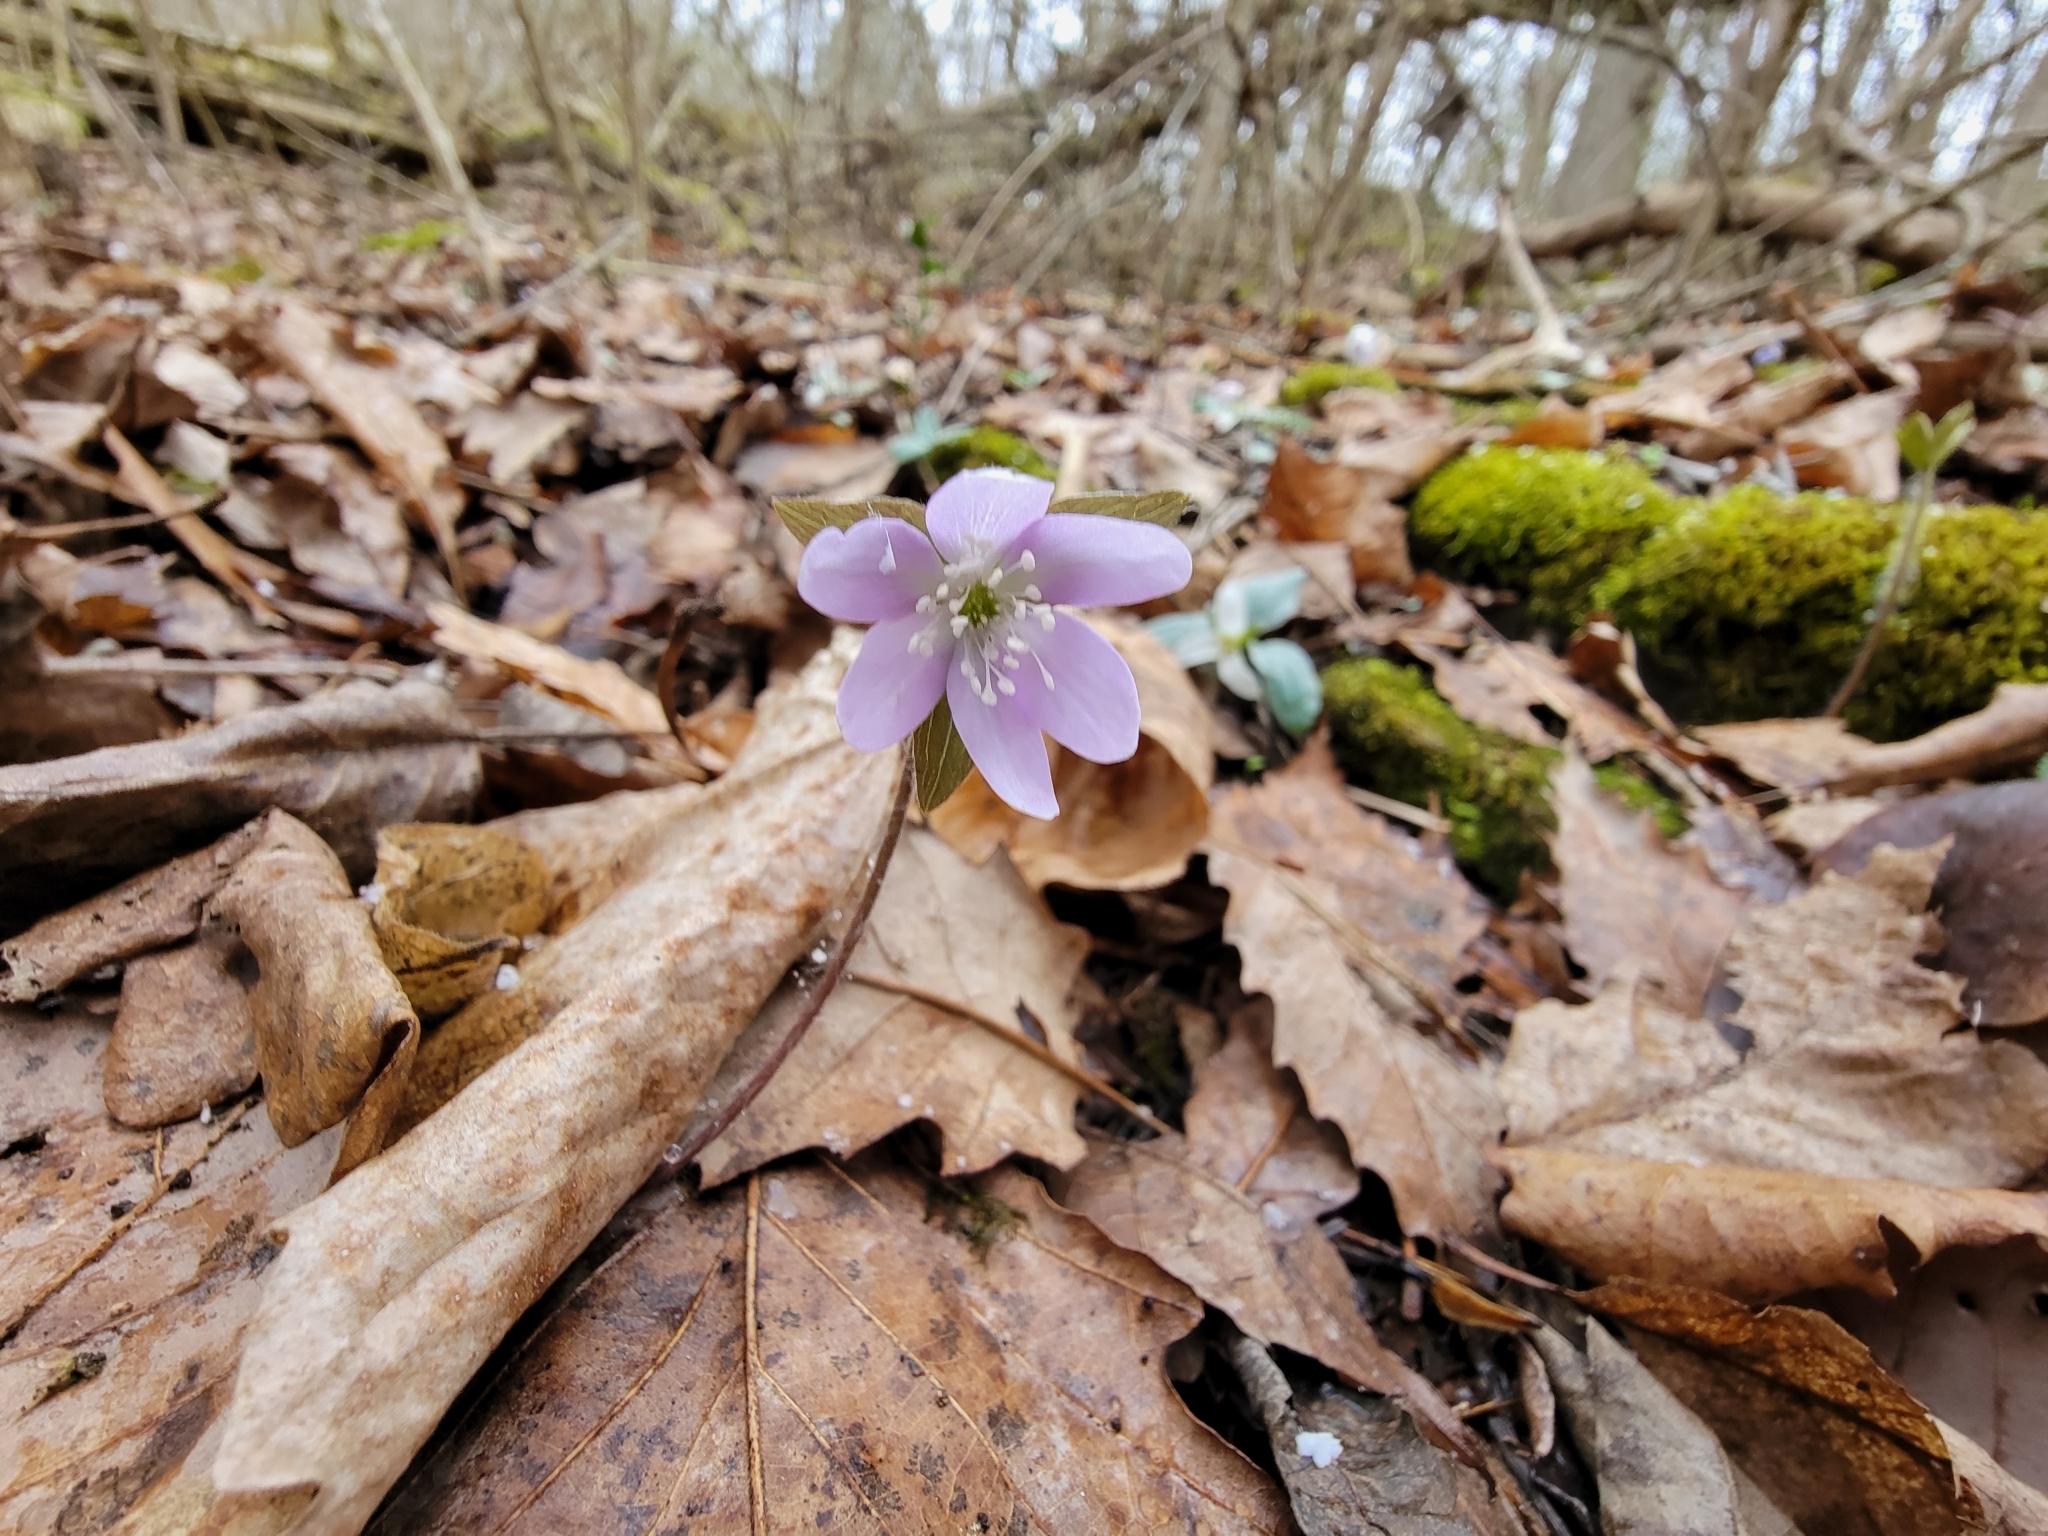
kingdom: Plantae
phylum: Tracheophyta
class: Magnoliopsida
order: Ranunculales
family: Ranunculaceae
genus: Hepatica
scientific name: Hepatica acutiloba
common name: Sharp-lobed hepatica
